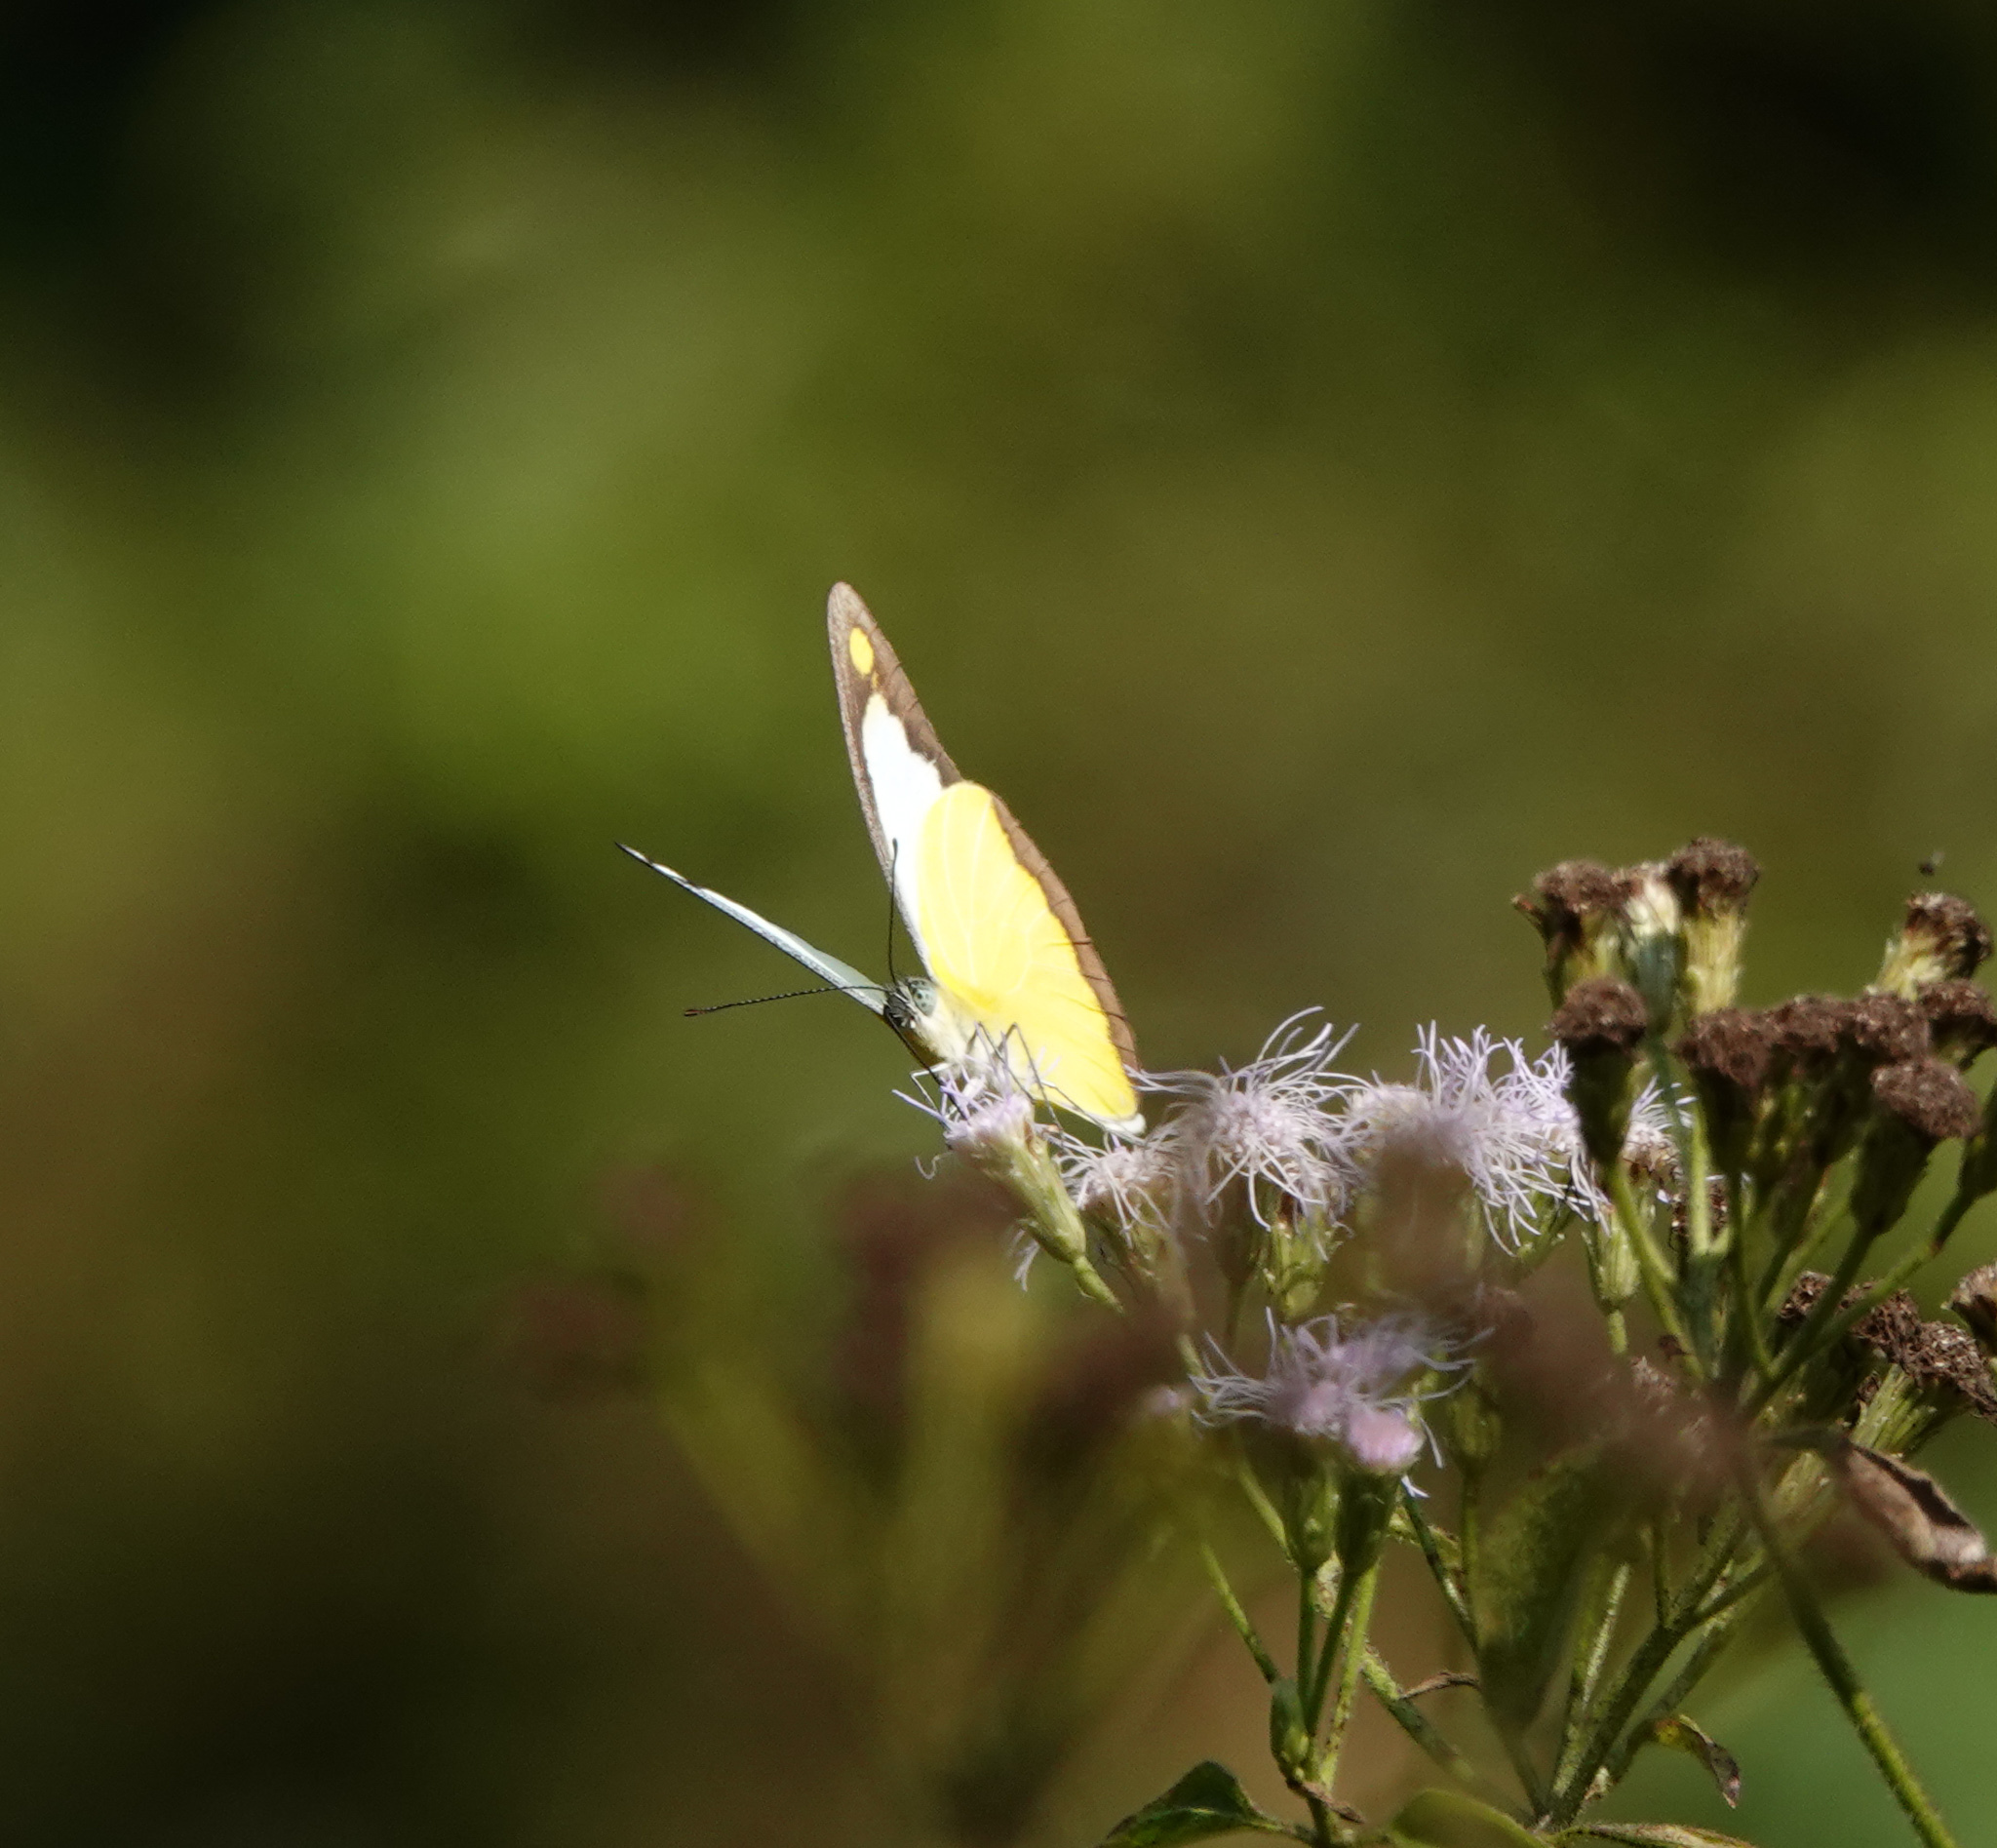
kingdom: Animalia
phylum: Arthropoda
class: Insecta
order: Lepidoptera
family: Pieridae
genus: Appias
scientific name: Appias lyncida
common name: Chocolate albatross
